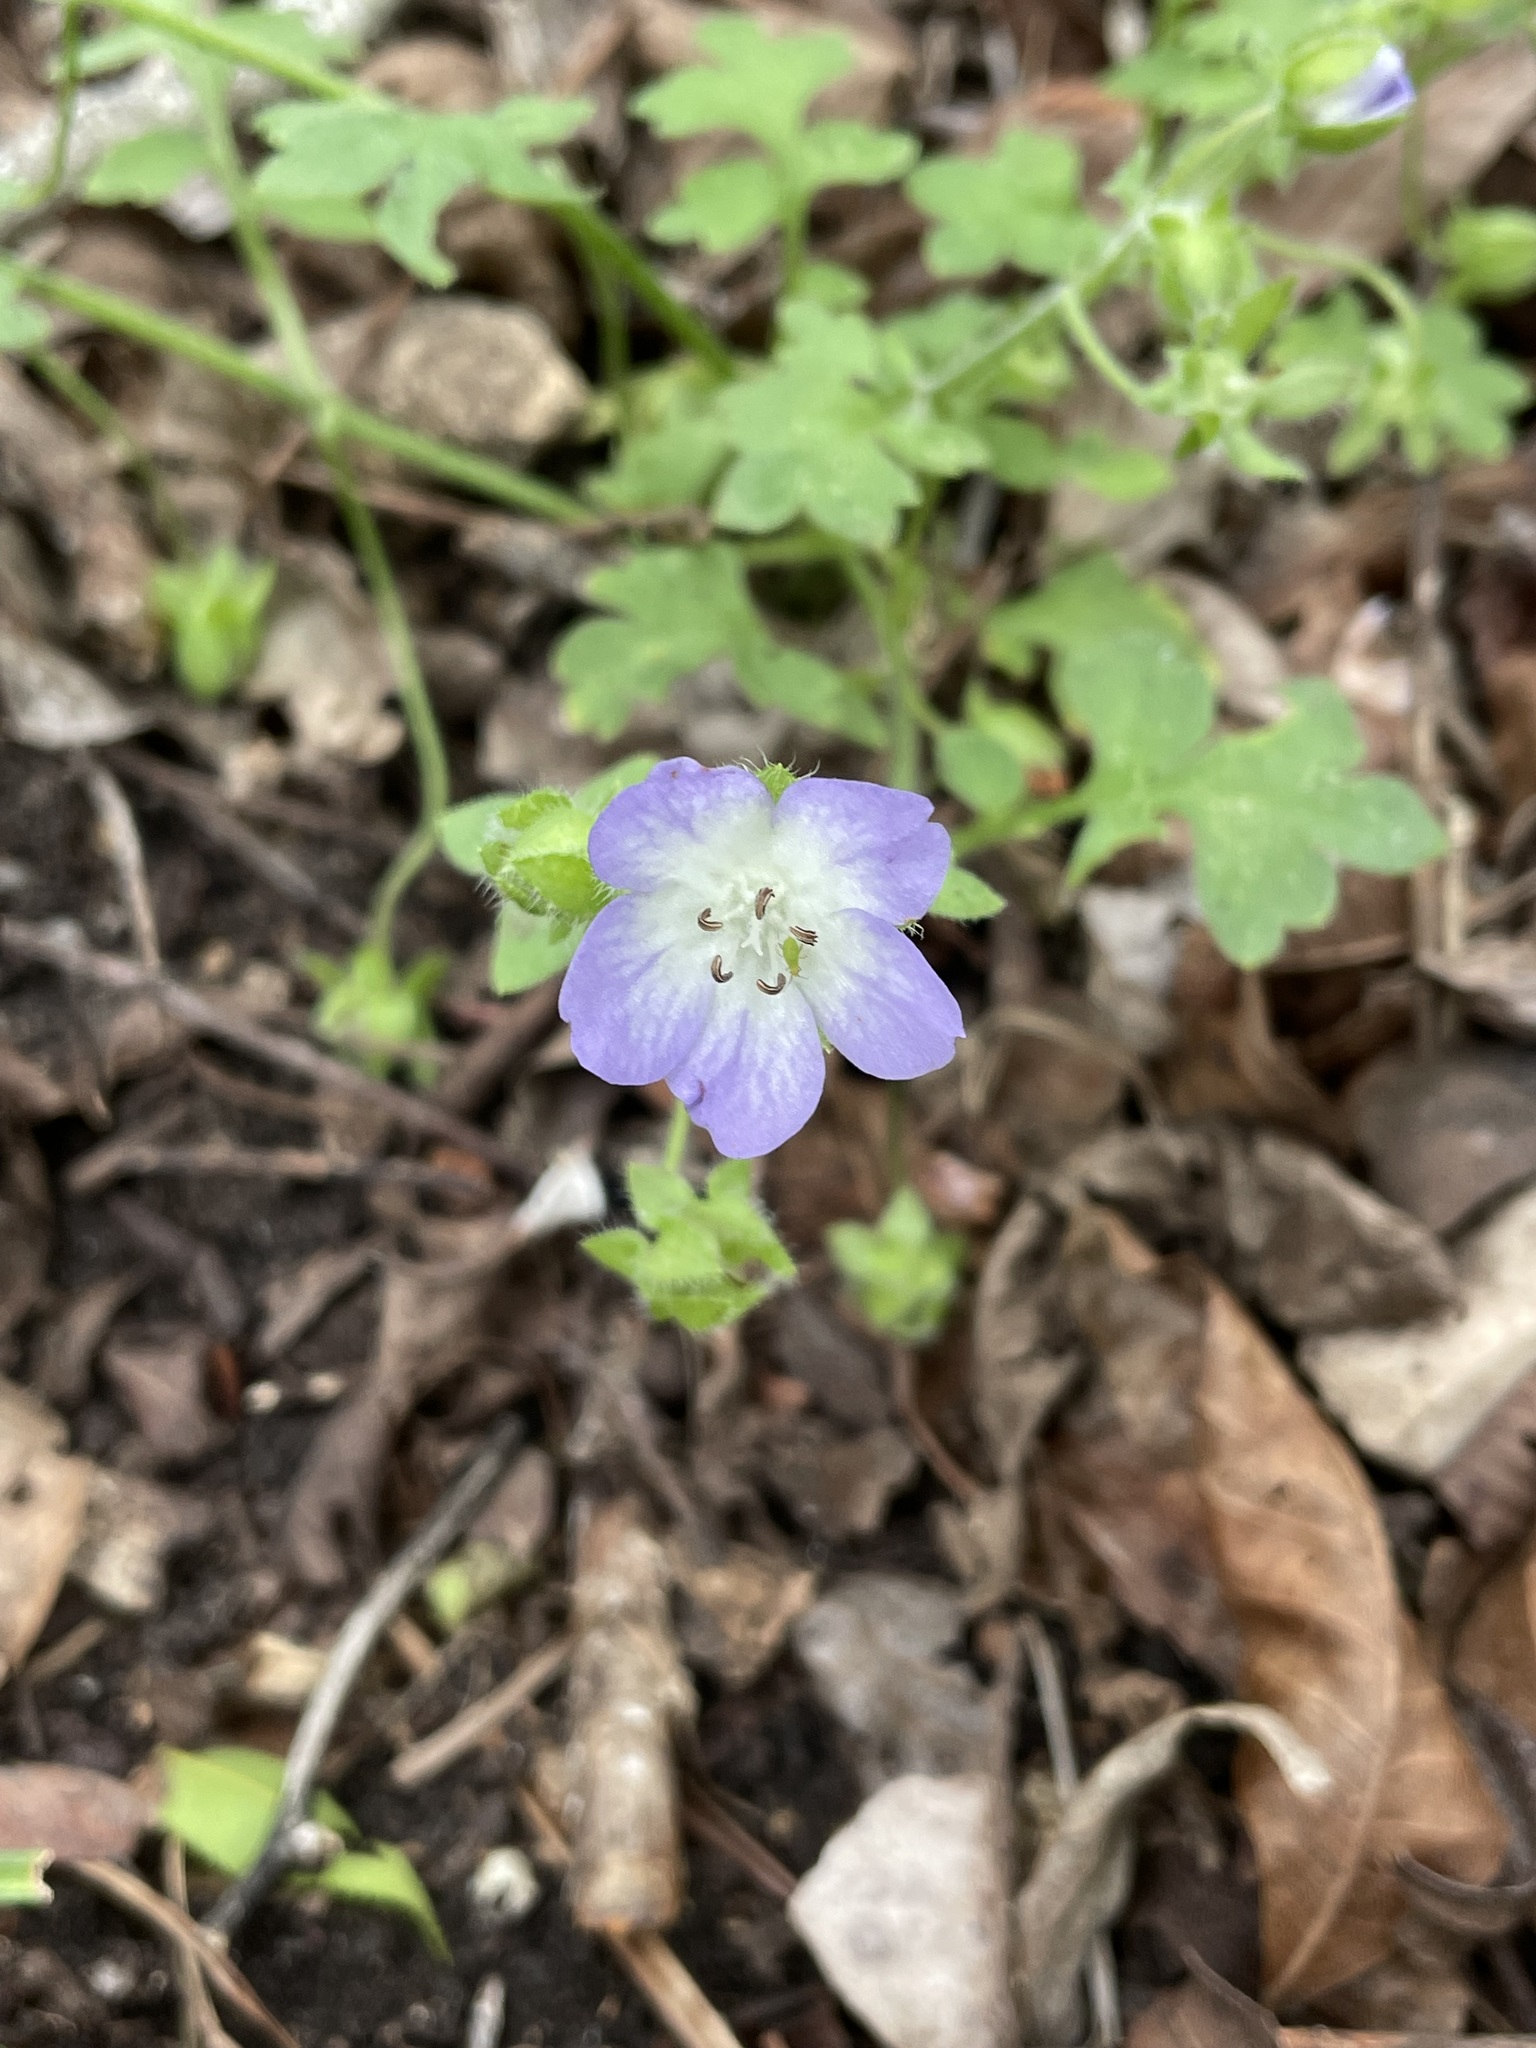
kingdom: Plantae
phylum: Tracheophyta
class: Magnoliopsida
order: Boraginales
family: Hydrophyllaceae
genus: Nemophila
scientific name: Nemophila phacelioides
